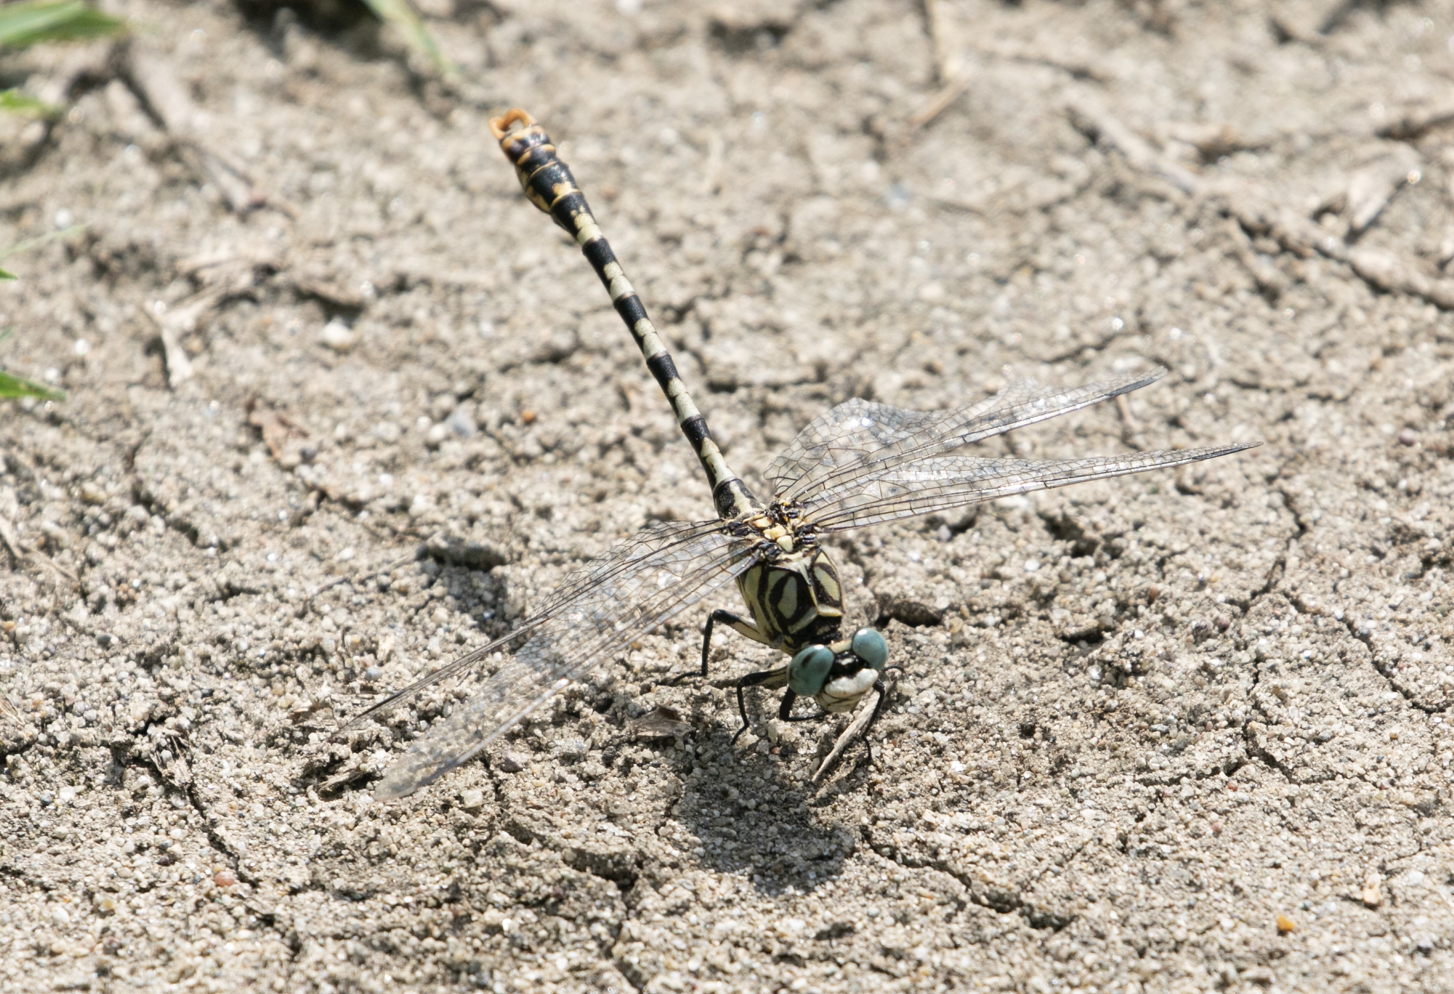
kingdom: Animalia
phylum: Arthropoda
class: Insecta
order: Odonata
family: Gomphidae
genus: Onychogomphus
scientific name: Onychogomphus forcipatus
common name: Small pincertail
